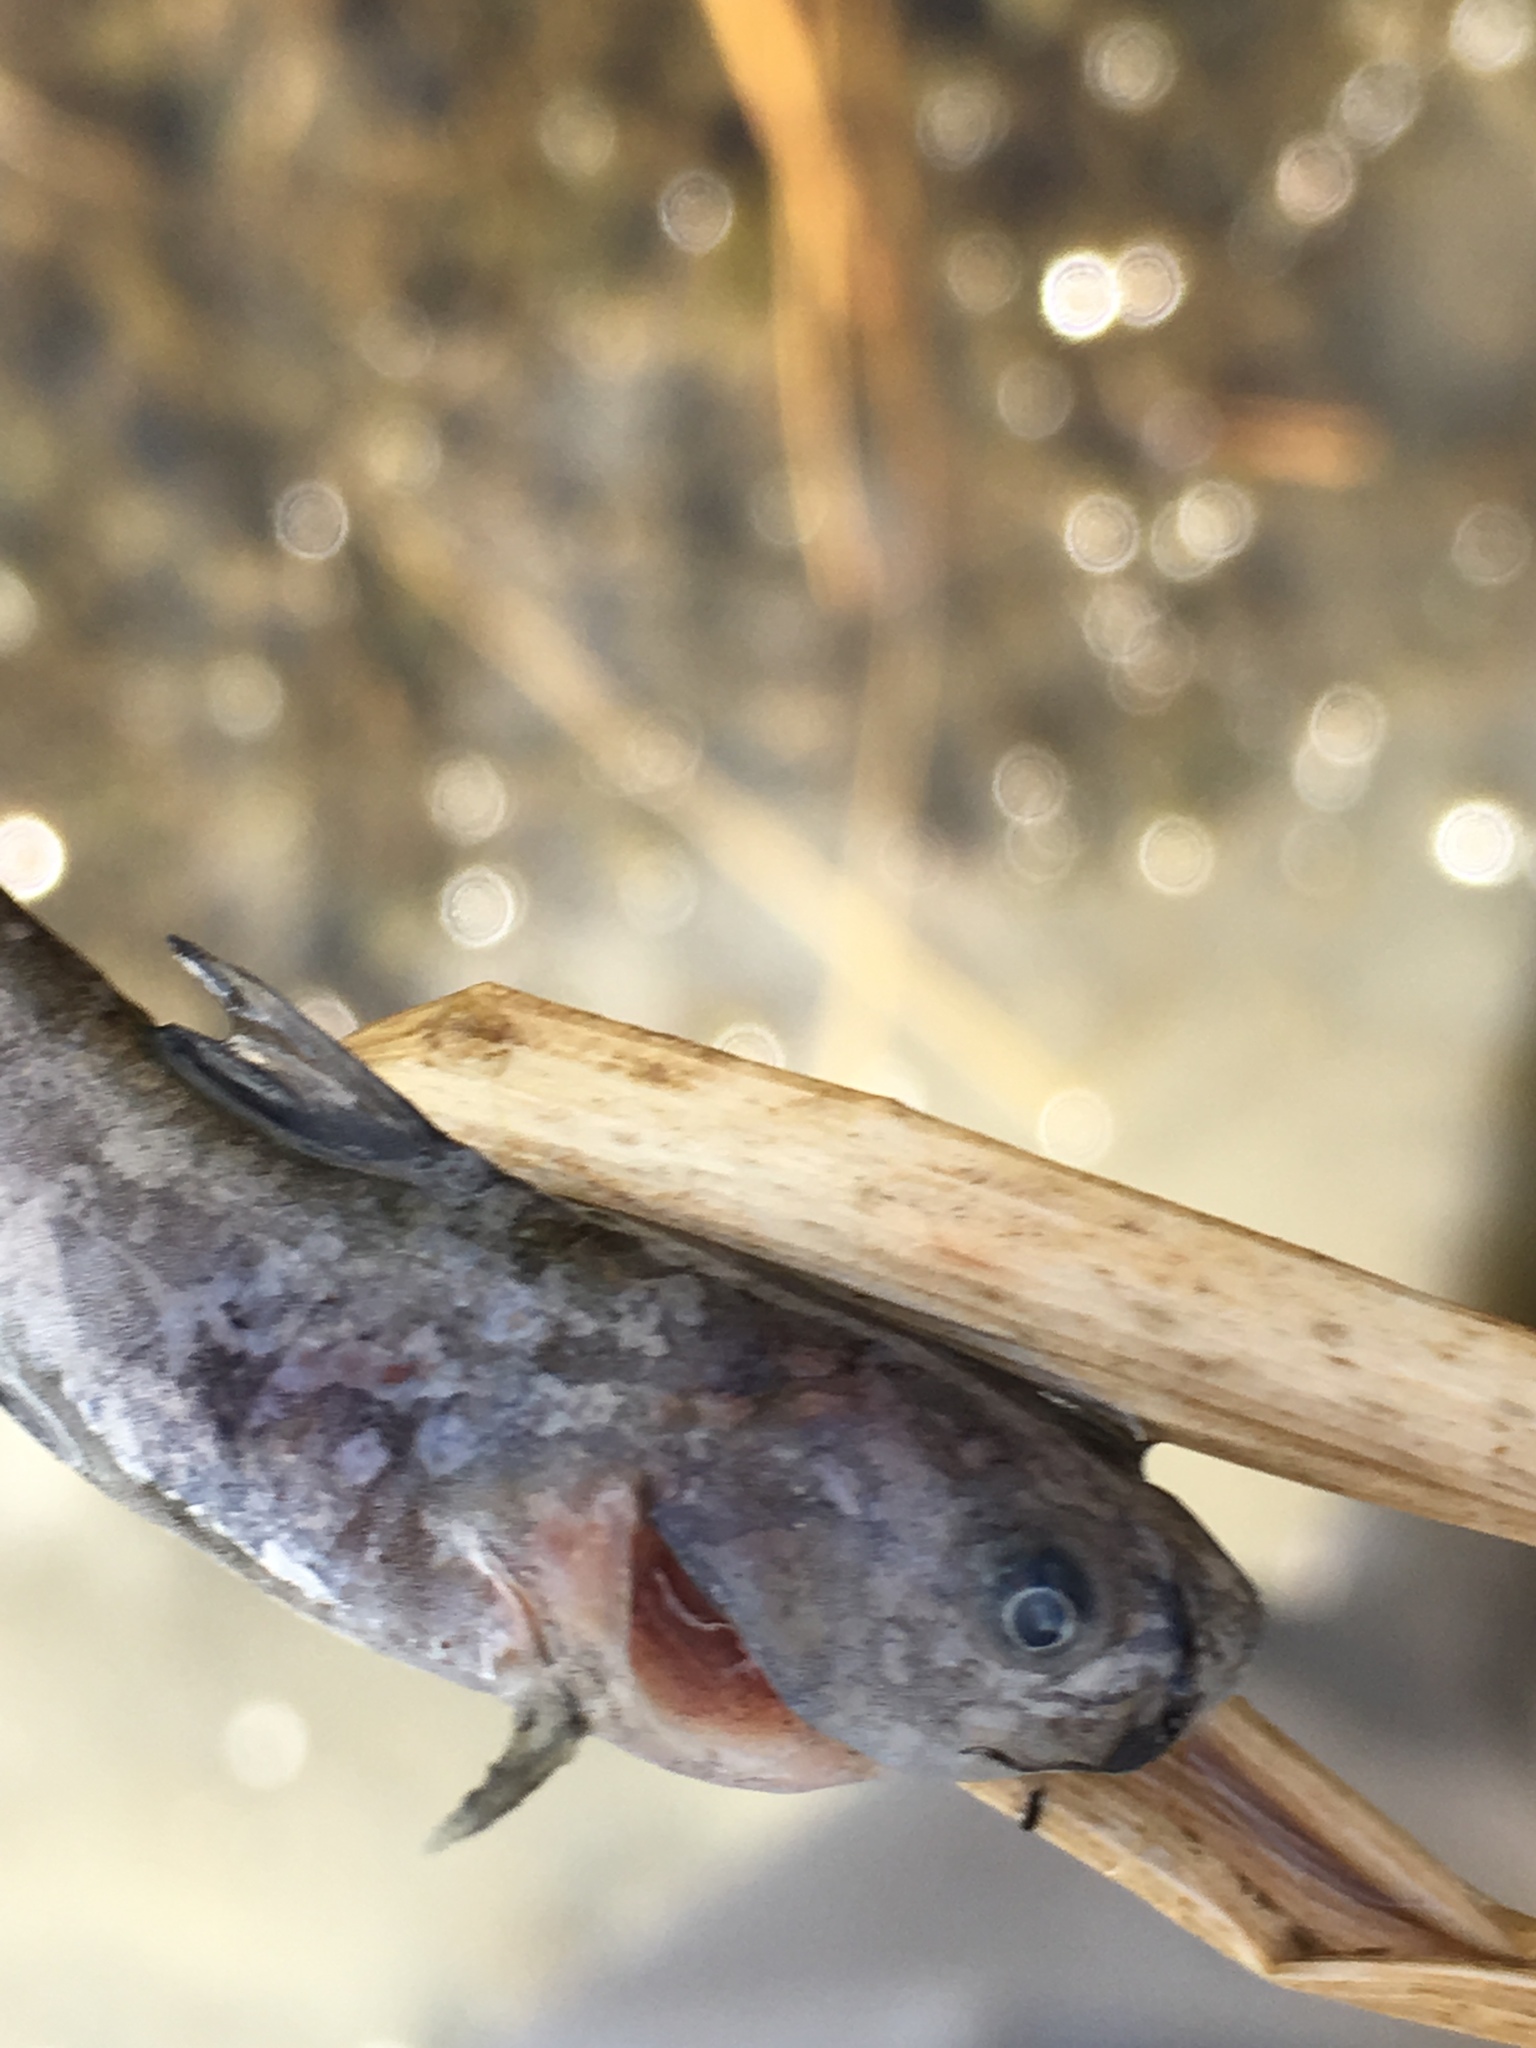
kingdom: Animalia
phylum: Chordata
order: Siluriformes
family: Ictaluridae
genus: Ameiurus
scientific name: Ameiurus nebulosus
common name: Brown bullhead
